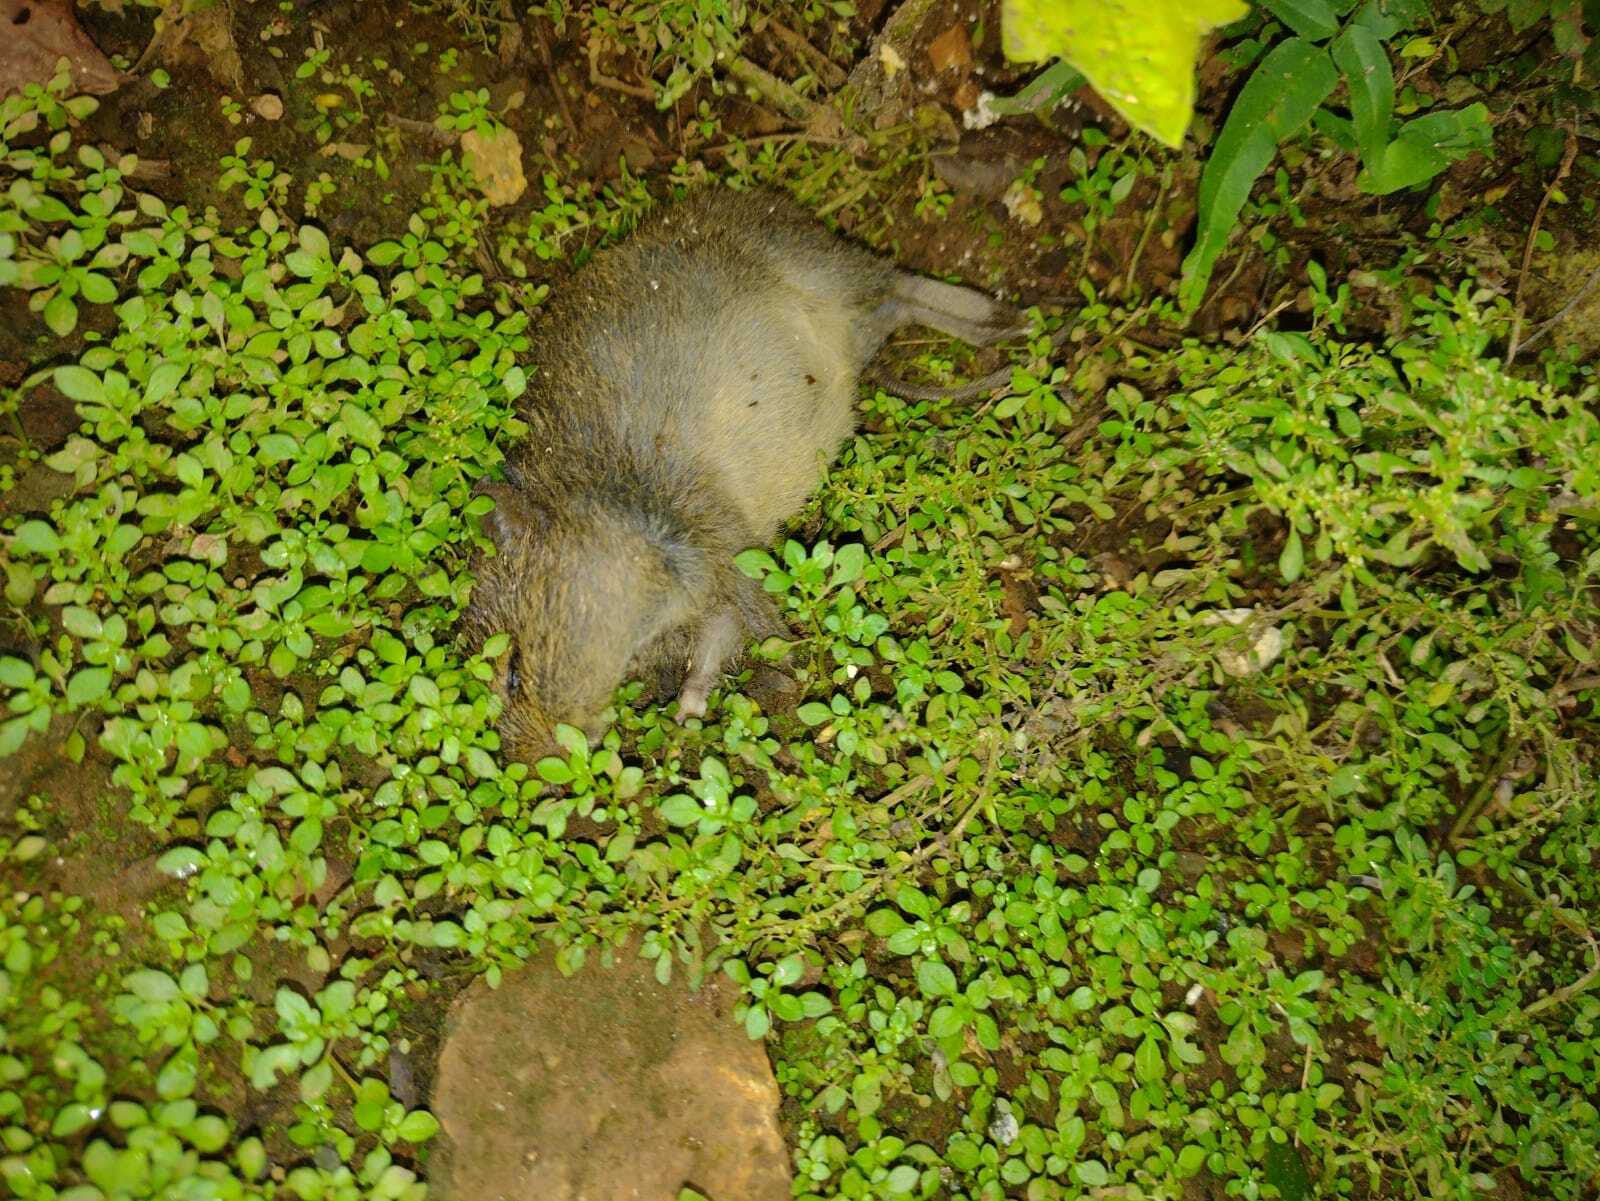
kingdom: Animalia
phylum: Chordata
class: Mammalia
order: Rodentia
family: Cricetidae
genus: Sigmodon
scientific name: Sigmodon toltecus
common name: Toltec cotton rat
